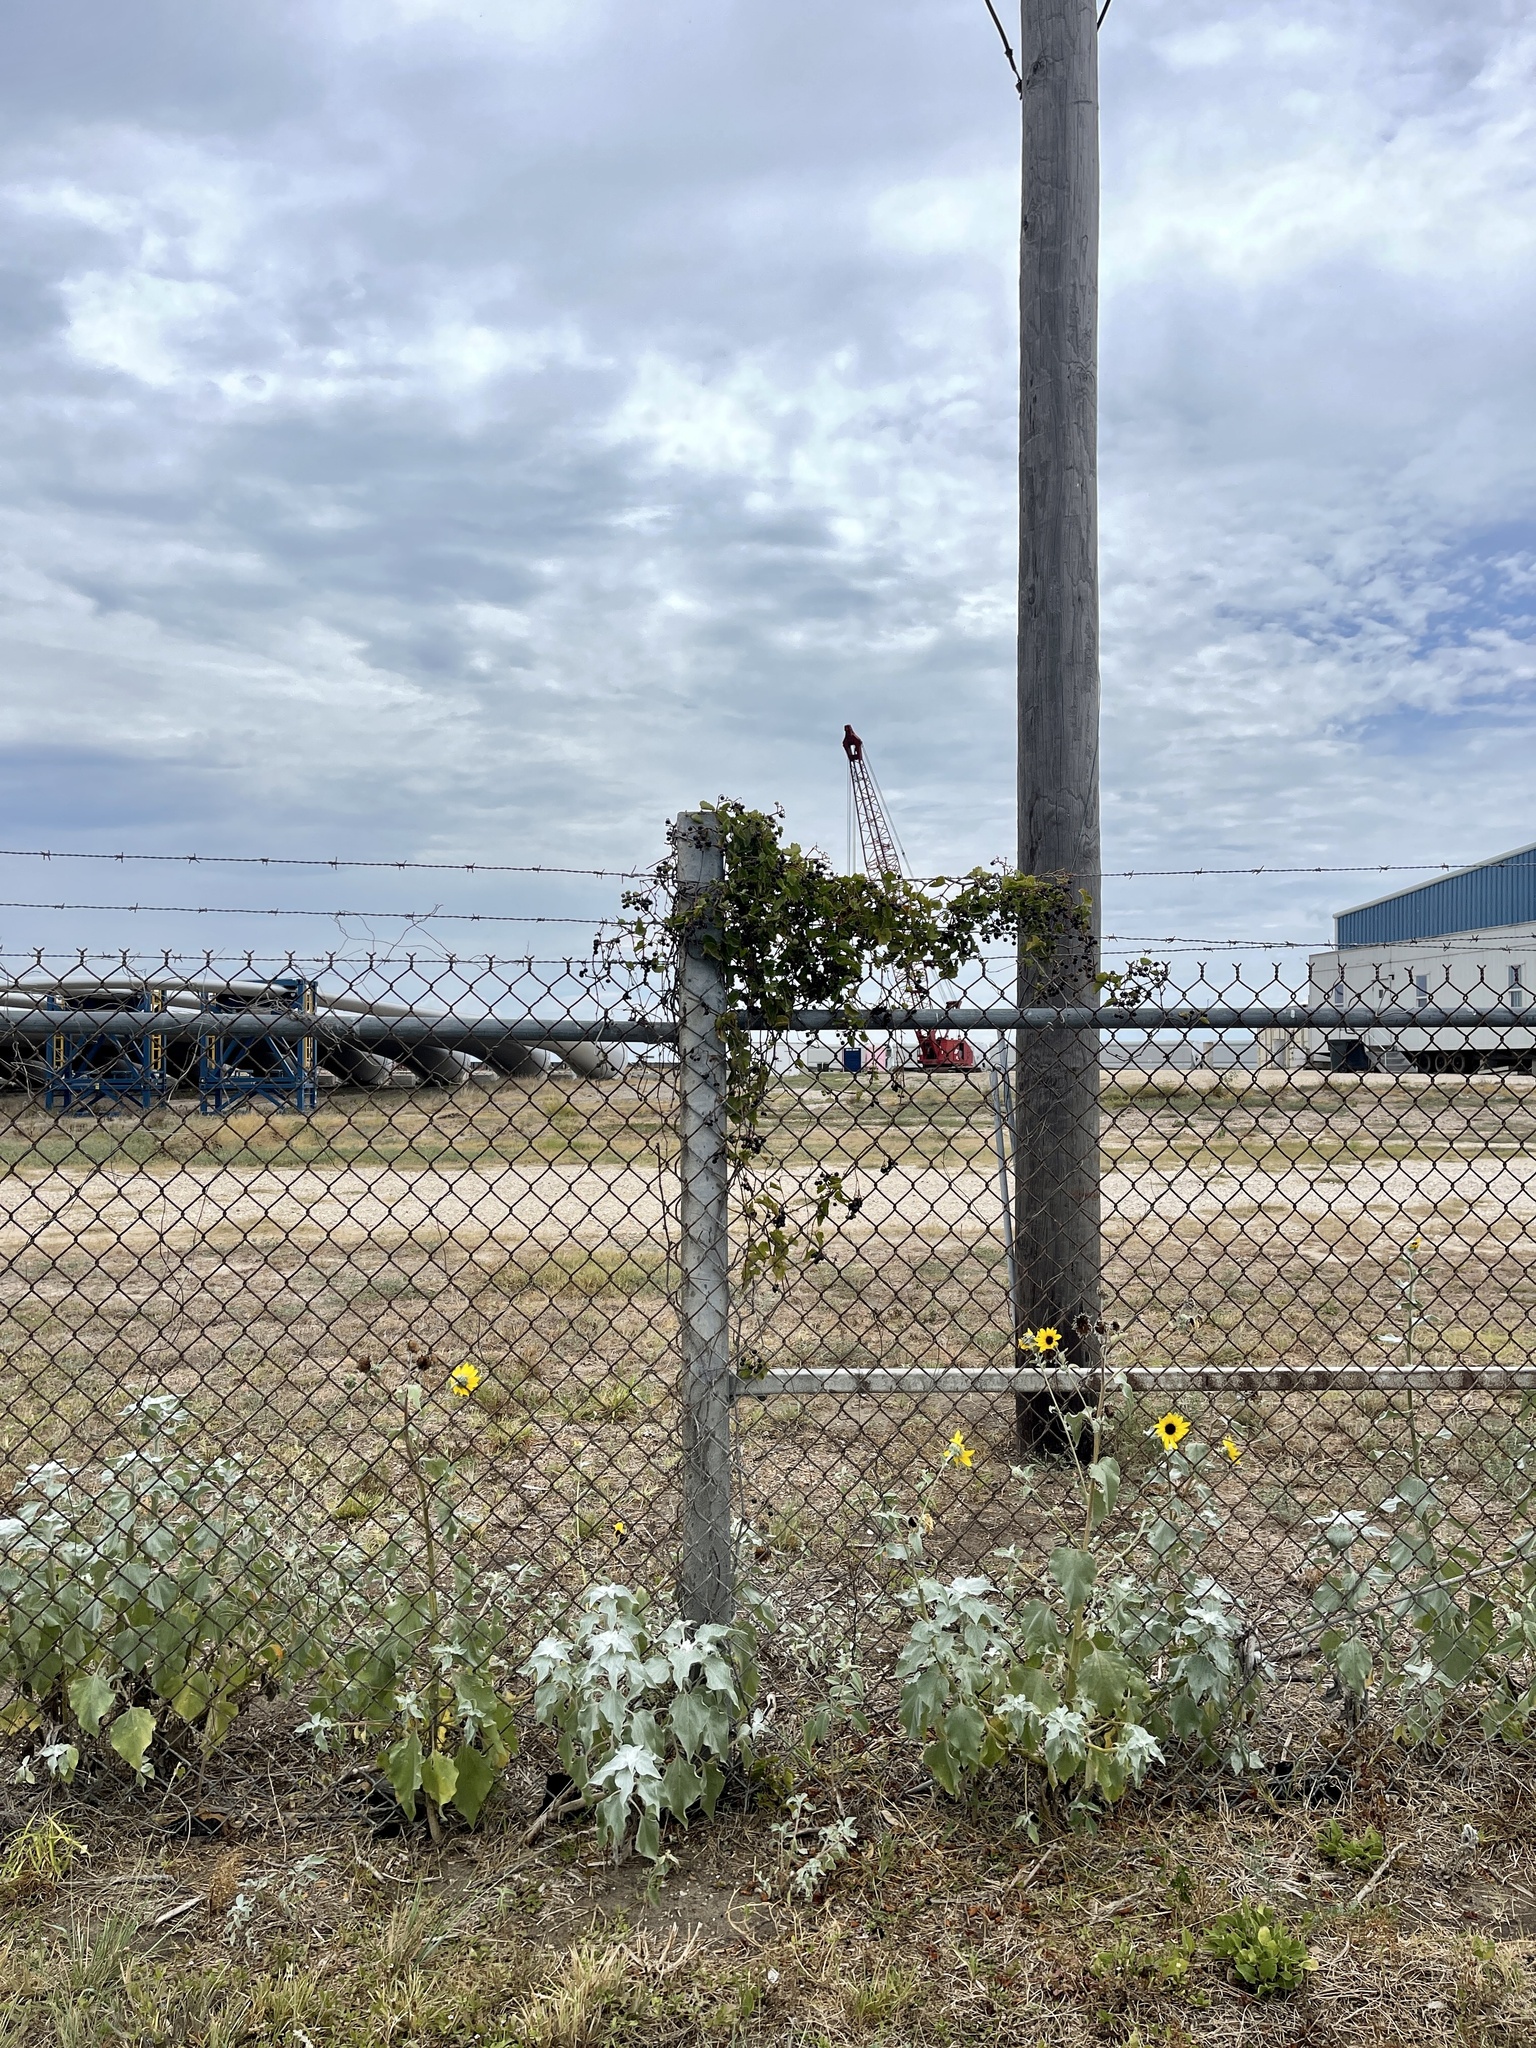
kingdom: Plantae
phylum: Tracheophyta
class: Magnoliopsida
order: Vitales
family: Vitaceae
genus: Cissus
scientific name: Cissus trifoliata
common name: Vine-sorrel
